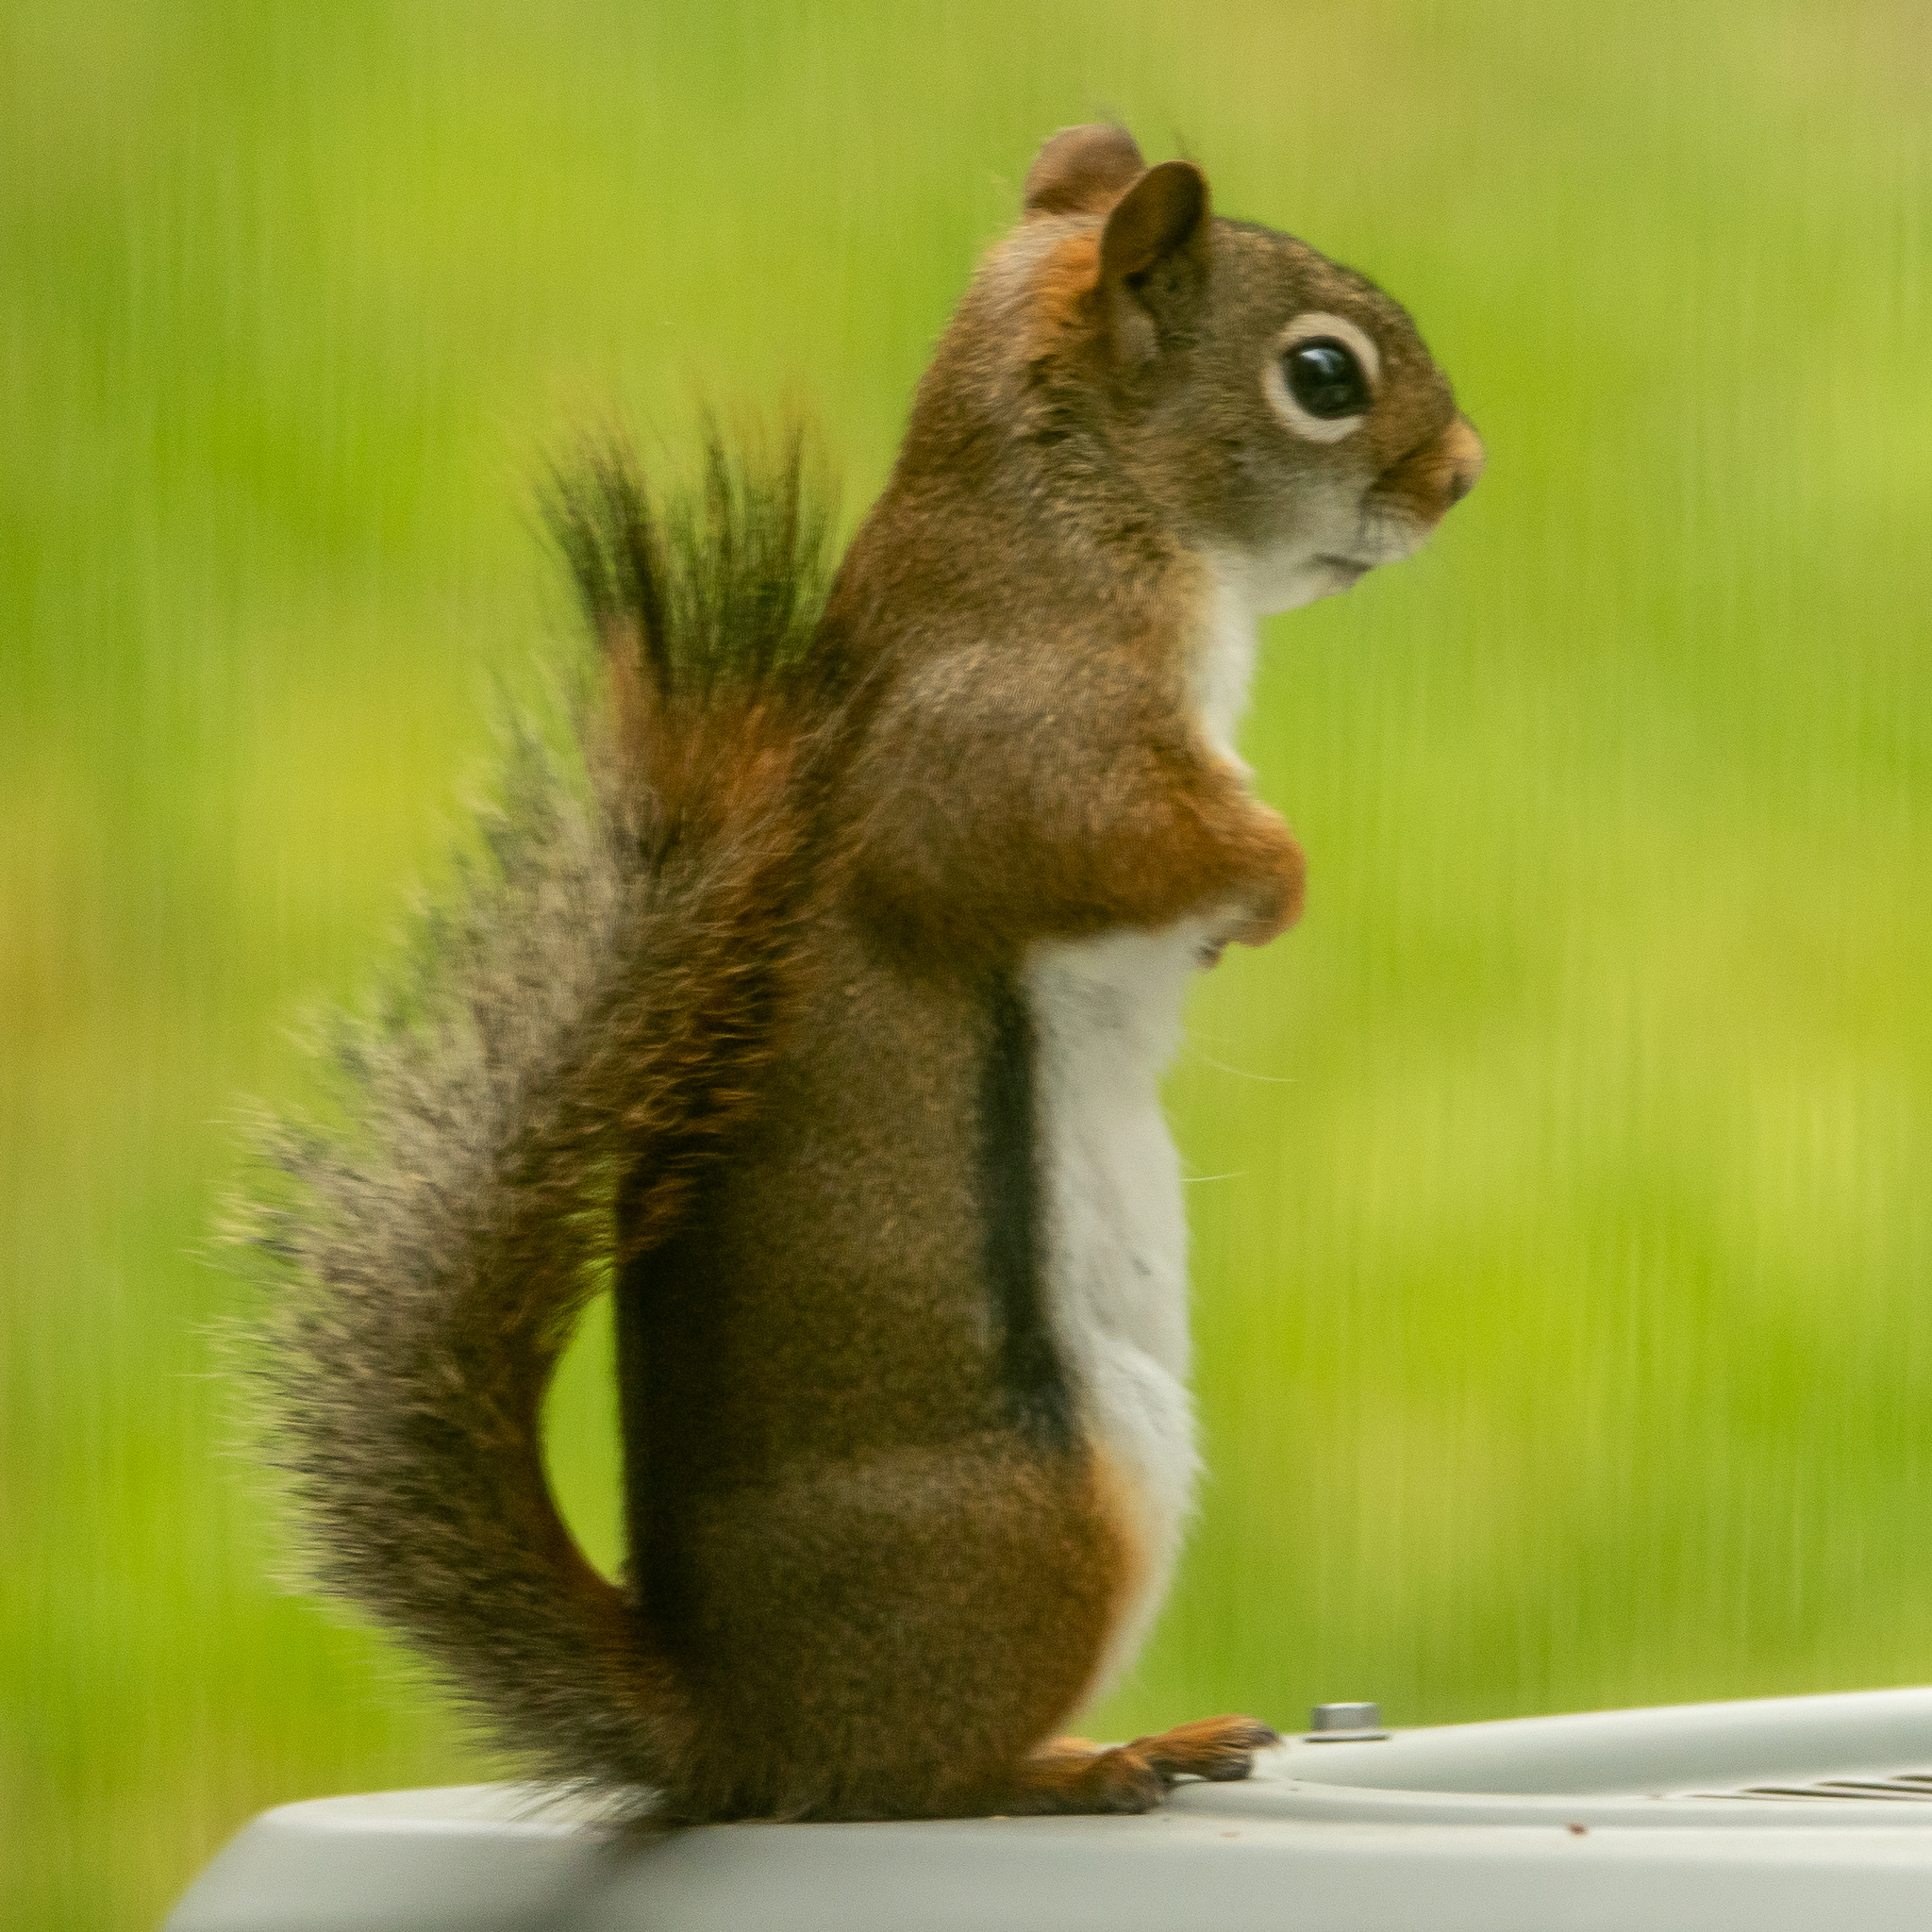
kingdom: Animalia
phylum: Chordata
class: Mammalia
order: Rodentia
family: Sciuridae
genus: Tamiasciurus
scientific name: Tamiasciurus hudsonicus
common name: Red squirrel
